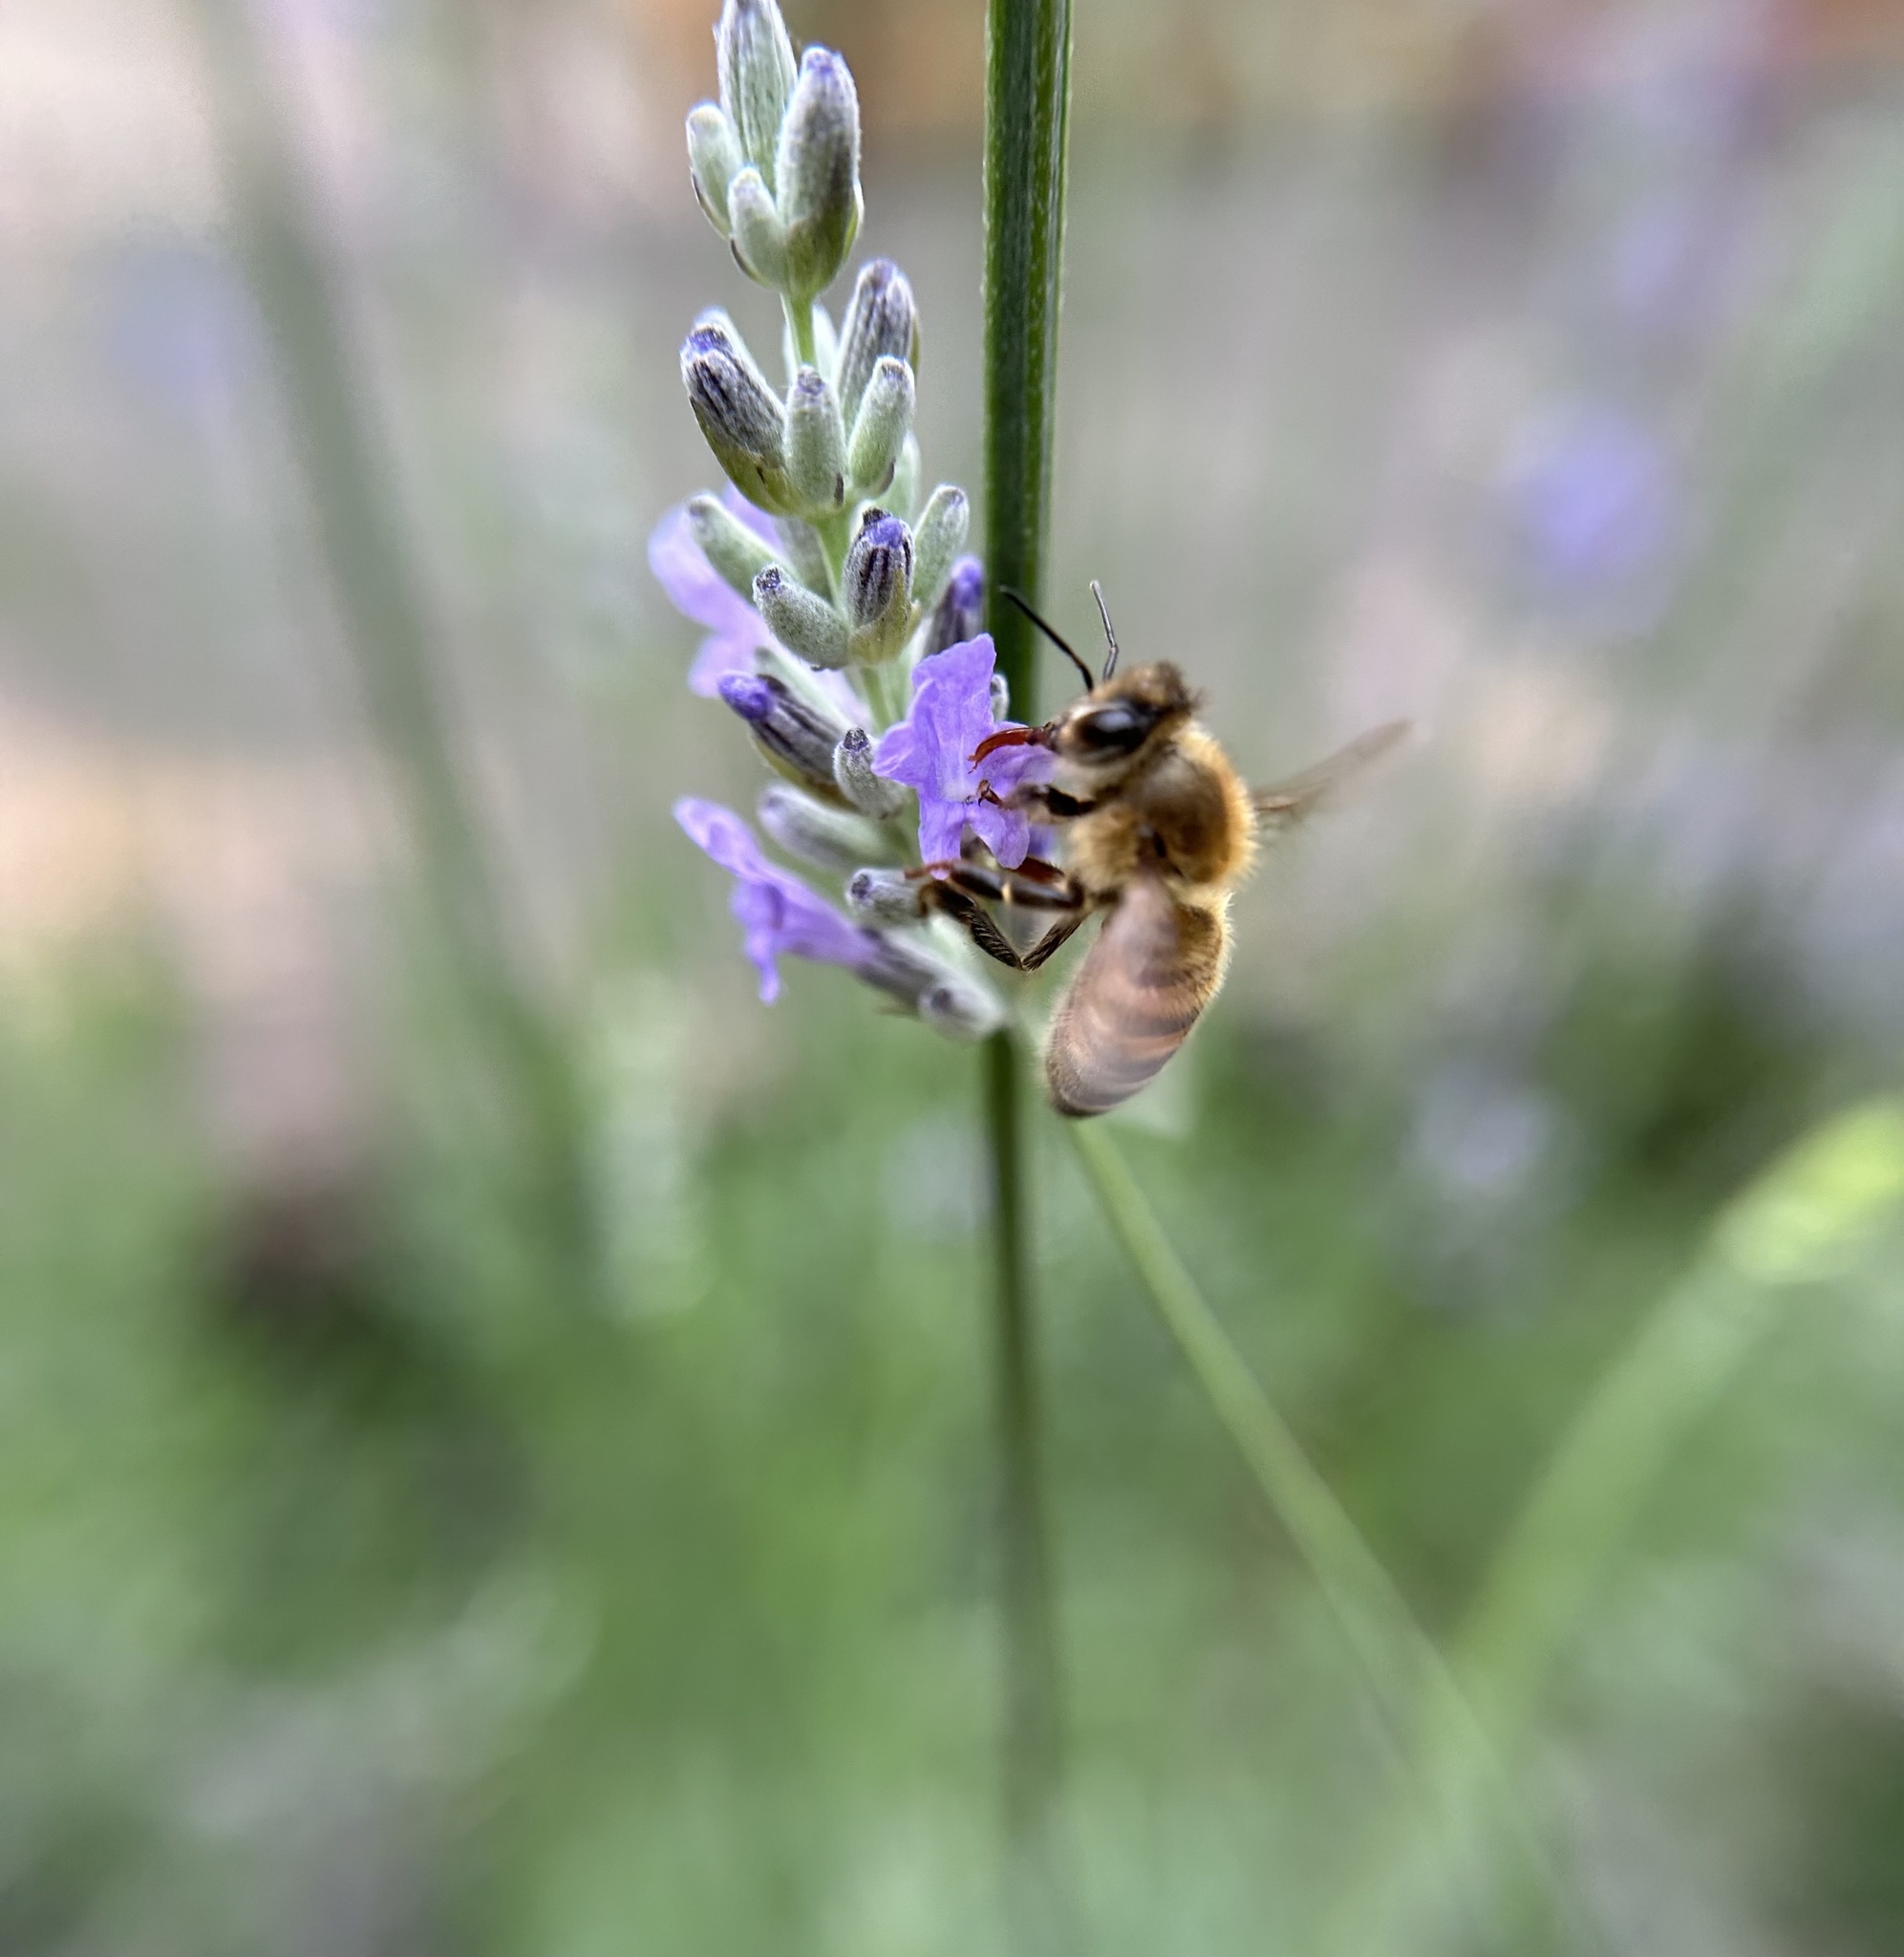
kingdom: Animalia
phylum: Arthropoda
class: Insecta
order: Hymenoptera
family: Apidae
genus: Apis
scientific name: Apis mellifera
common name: Honey bee
